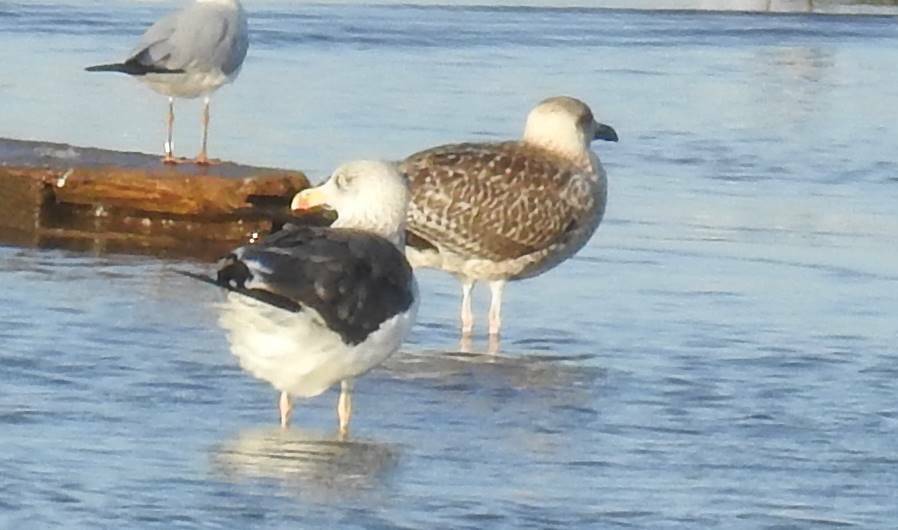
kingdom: Animalia
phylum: Chordata
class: Aves
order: Charadriiformes
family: Laridae
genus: Larus
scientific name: Larus fuscus
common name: Lesser black-backed gull
